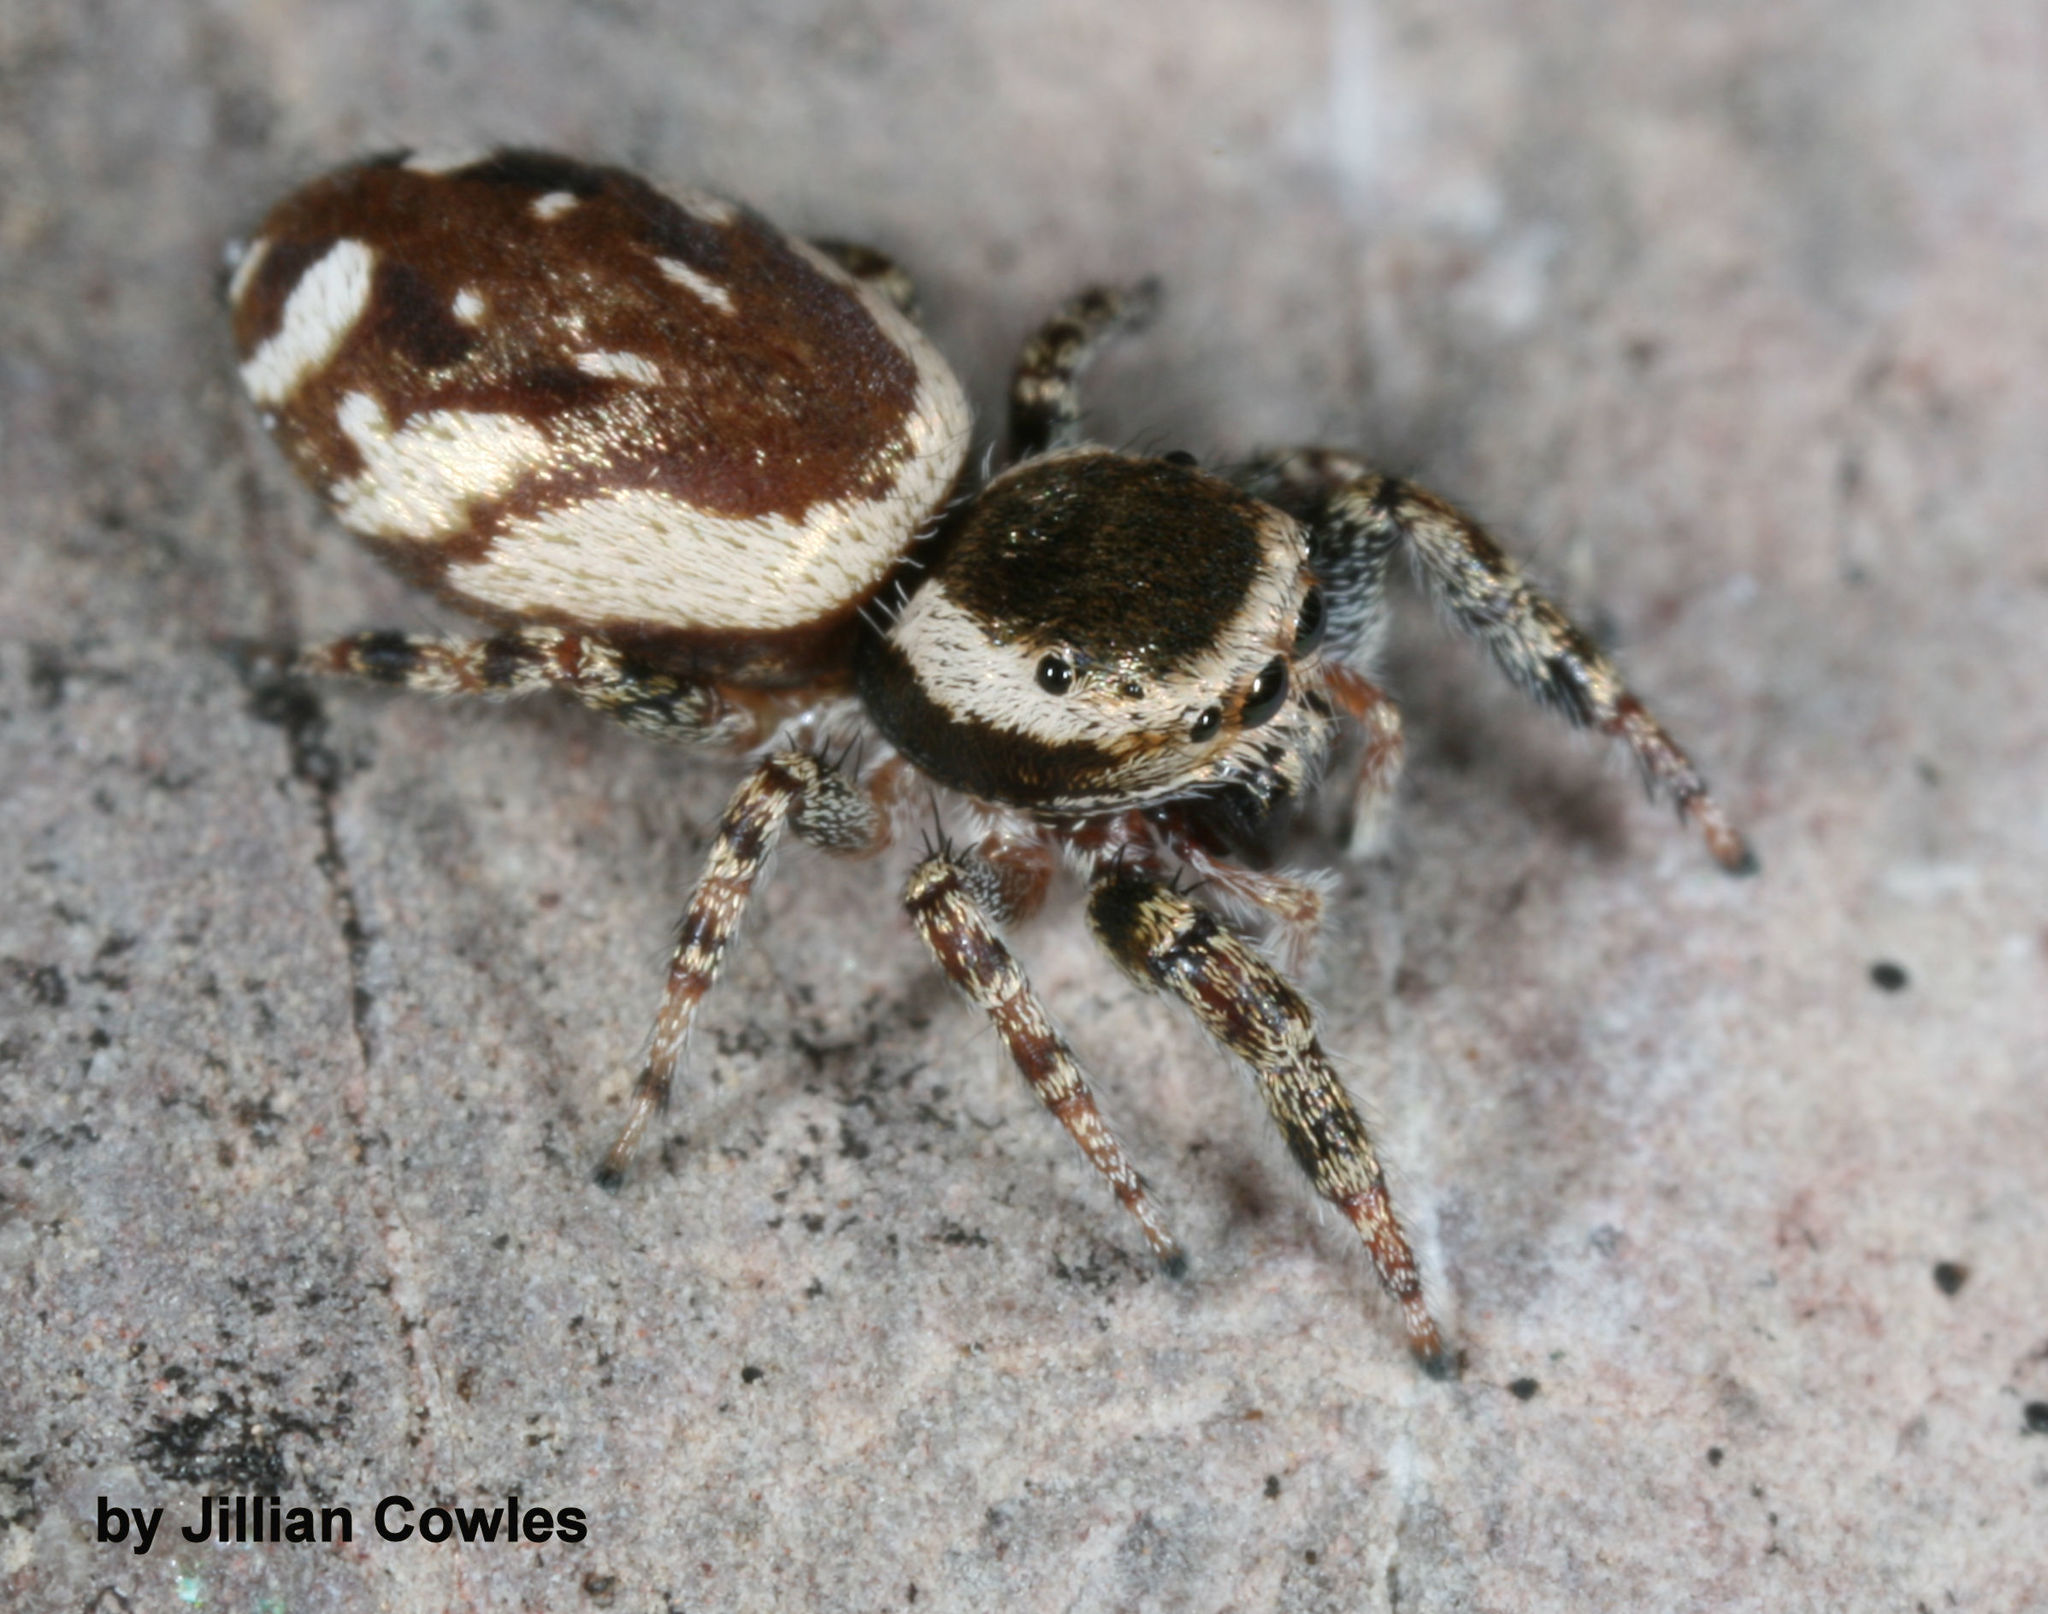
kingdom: Animalia
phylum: Arthropoda
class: Arachnida
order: Araneae
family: Salticidae
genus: Pelegrina
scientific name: Pelegrina furcata
